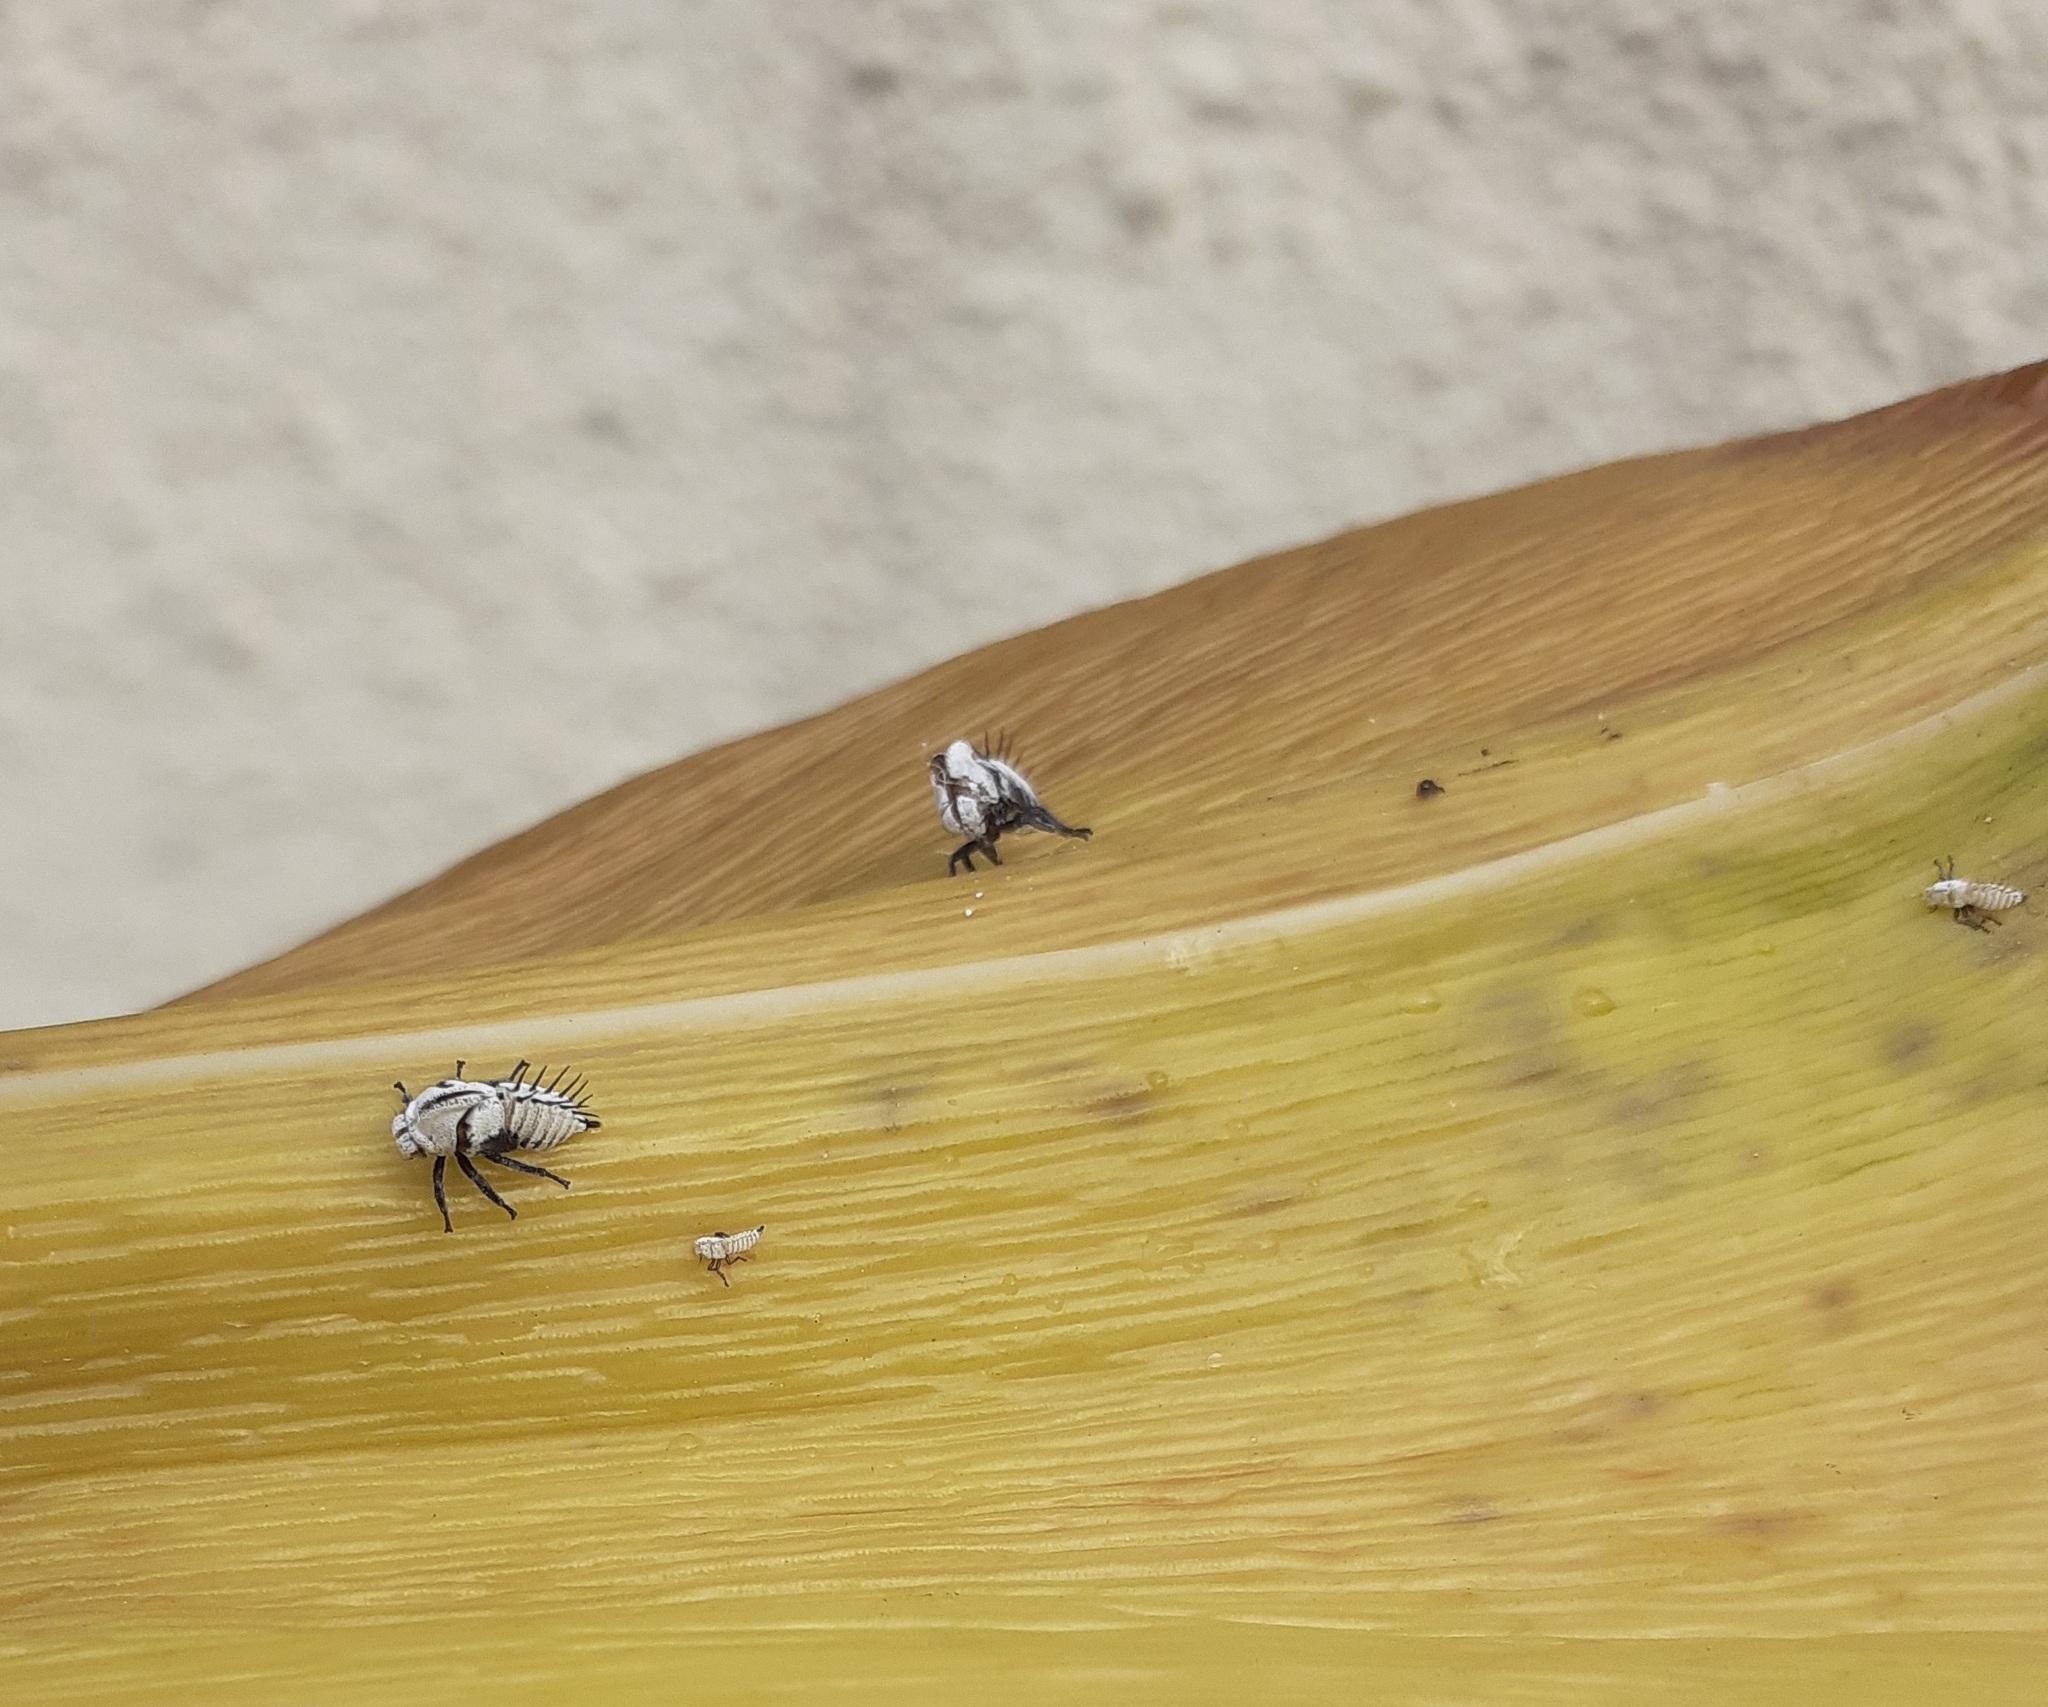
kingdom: Animalia
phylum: Arthropoda
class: Insecta
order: Hemiptera
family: Membracidae
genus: Membracis
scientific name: Membracis tectigera
